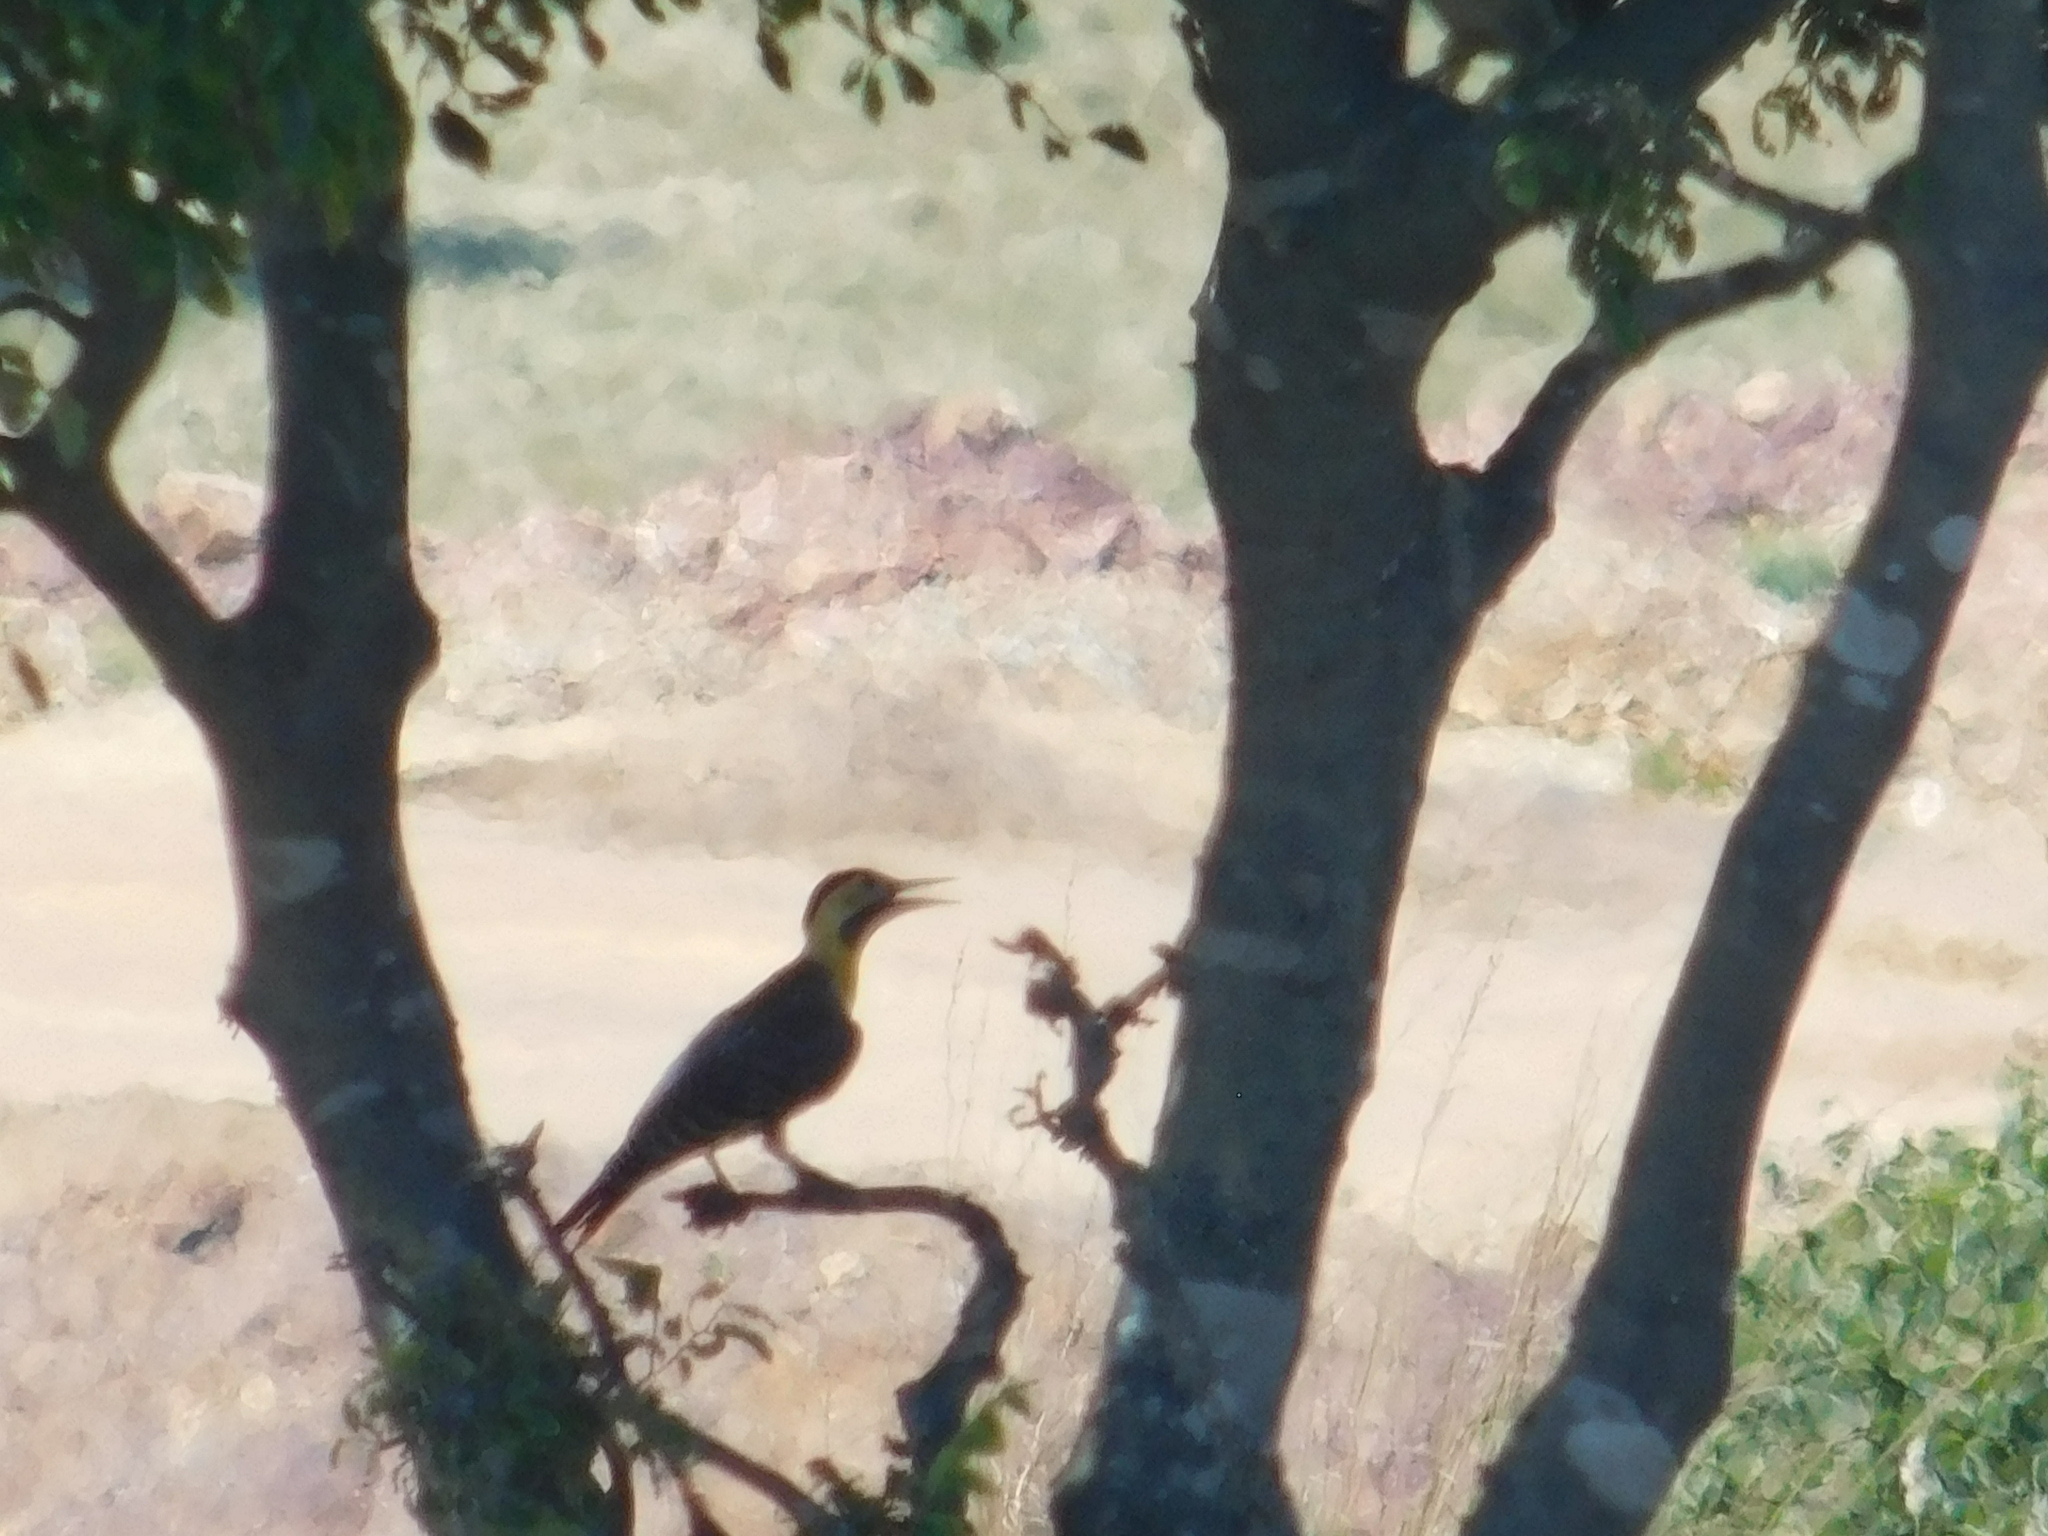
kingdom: Animalia
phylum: Chordata
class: Aves
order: Piciformes
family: Picidae
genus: Colaptes
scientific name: Colaptes campestris
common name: Campo flicker
